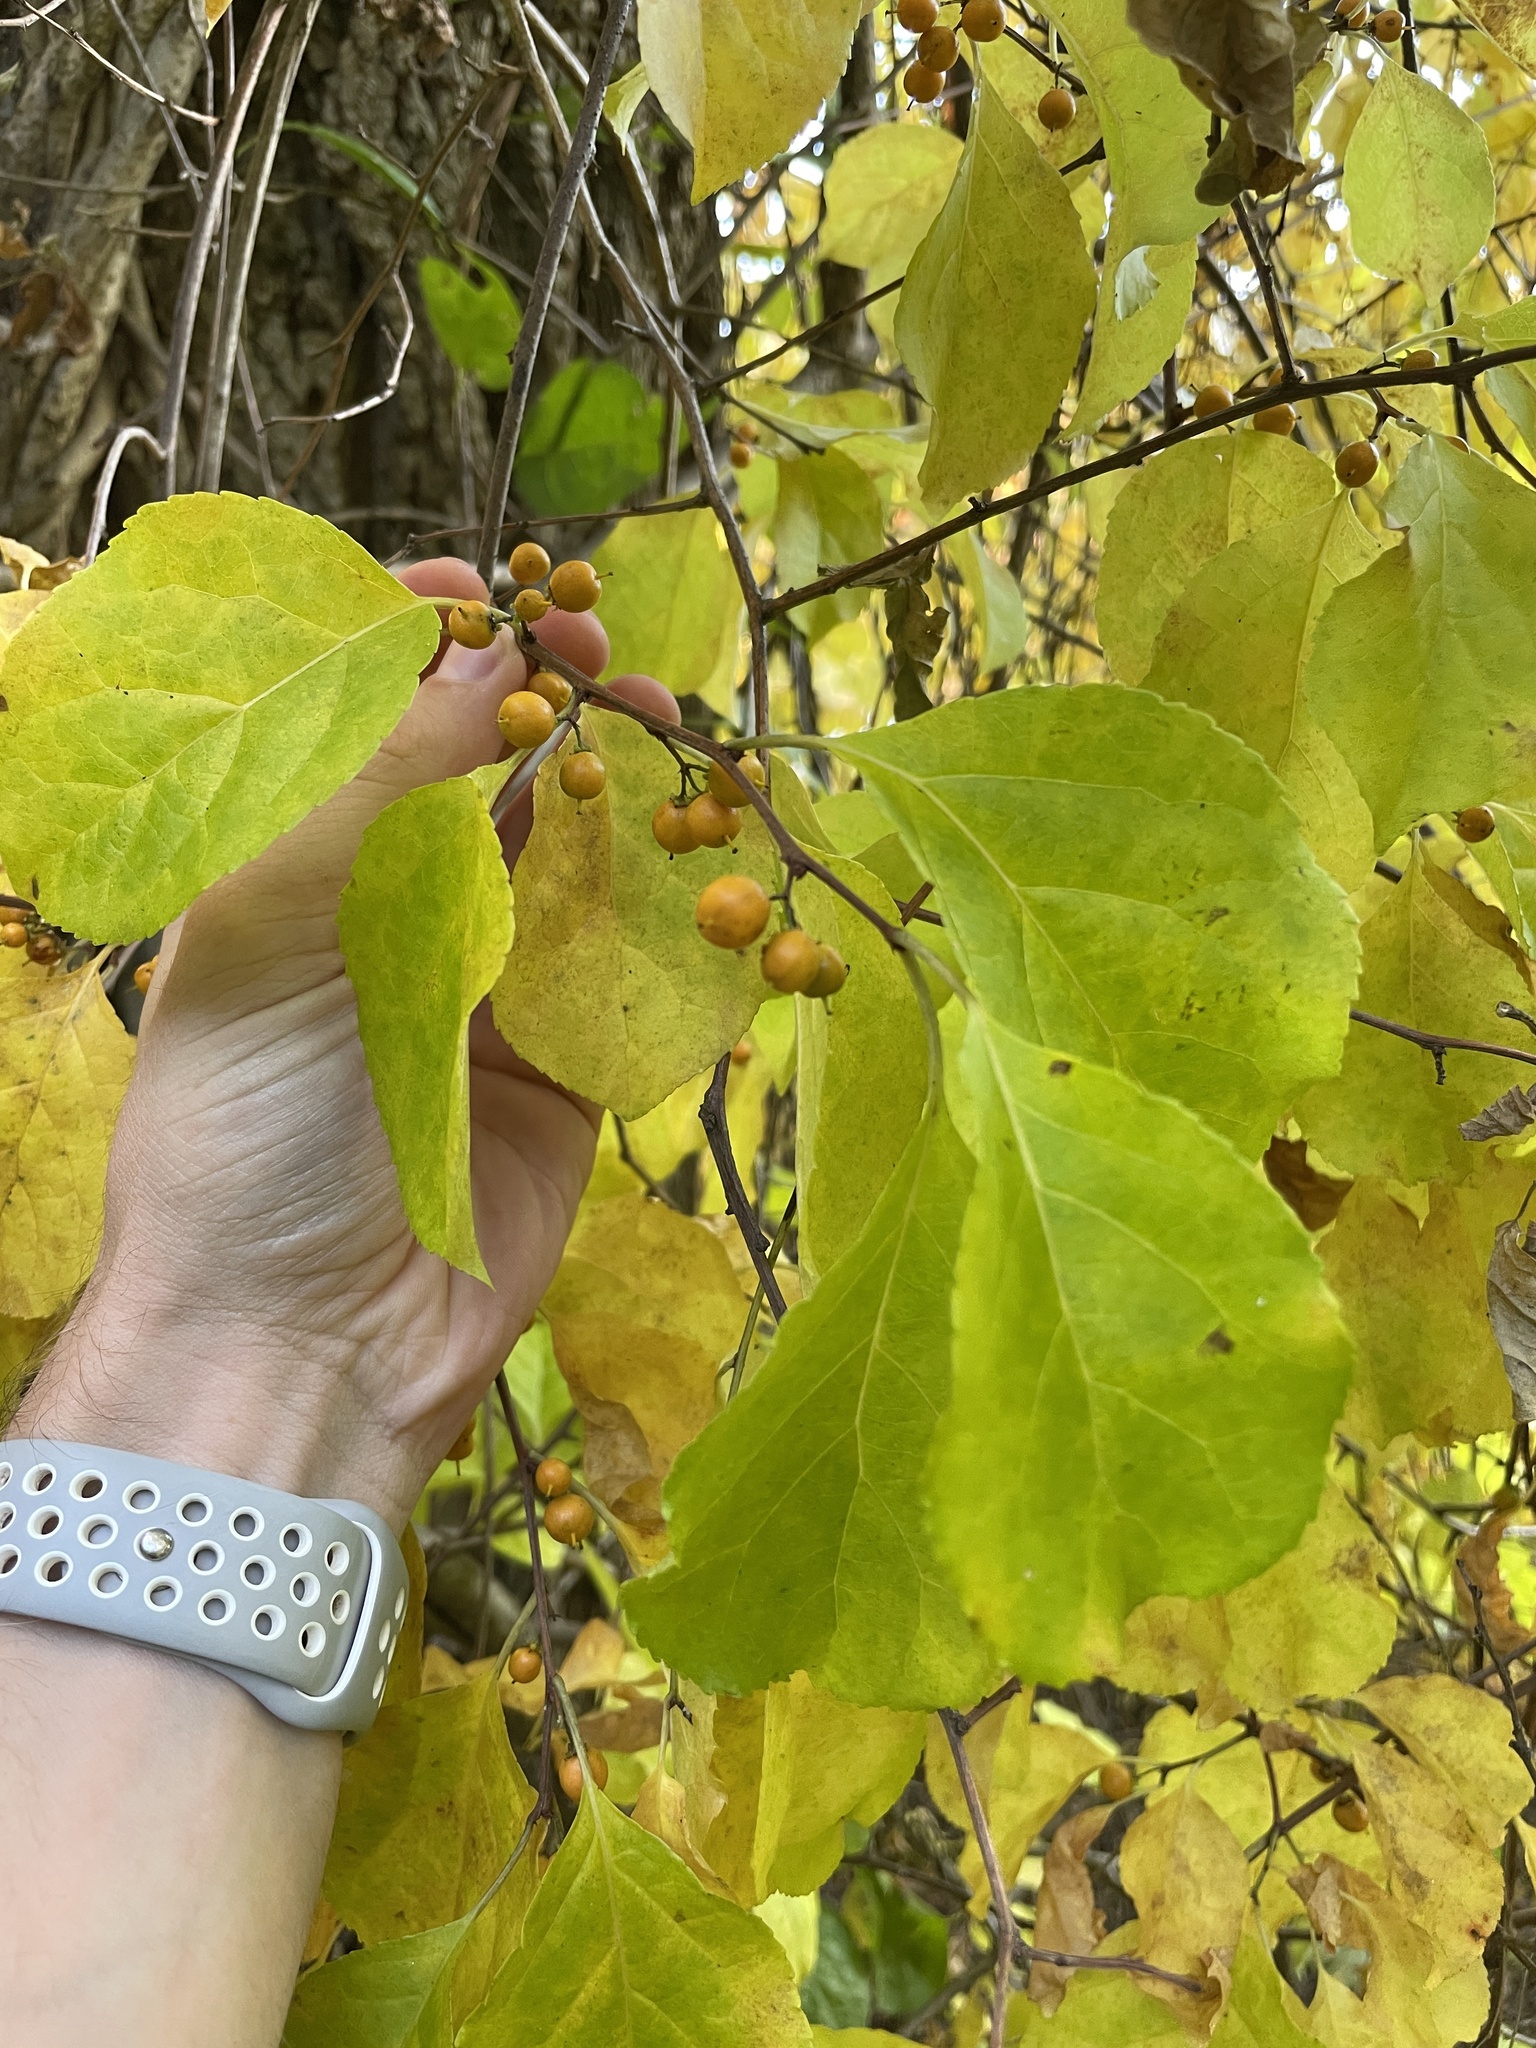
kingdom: Plantae
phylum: Tracheophyta
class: Magnoliopsida
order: Celastrales
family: Celastraceae
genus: Celastrus
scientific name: Celastrus orbiculatus
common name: Oriental bittersweet
